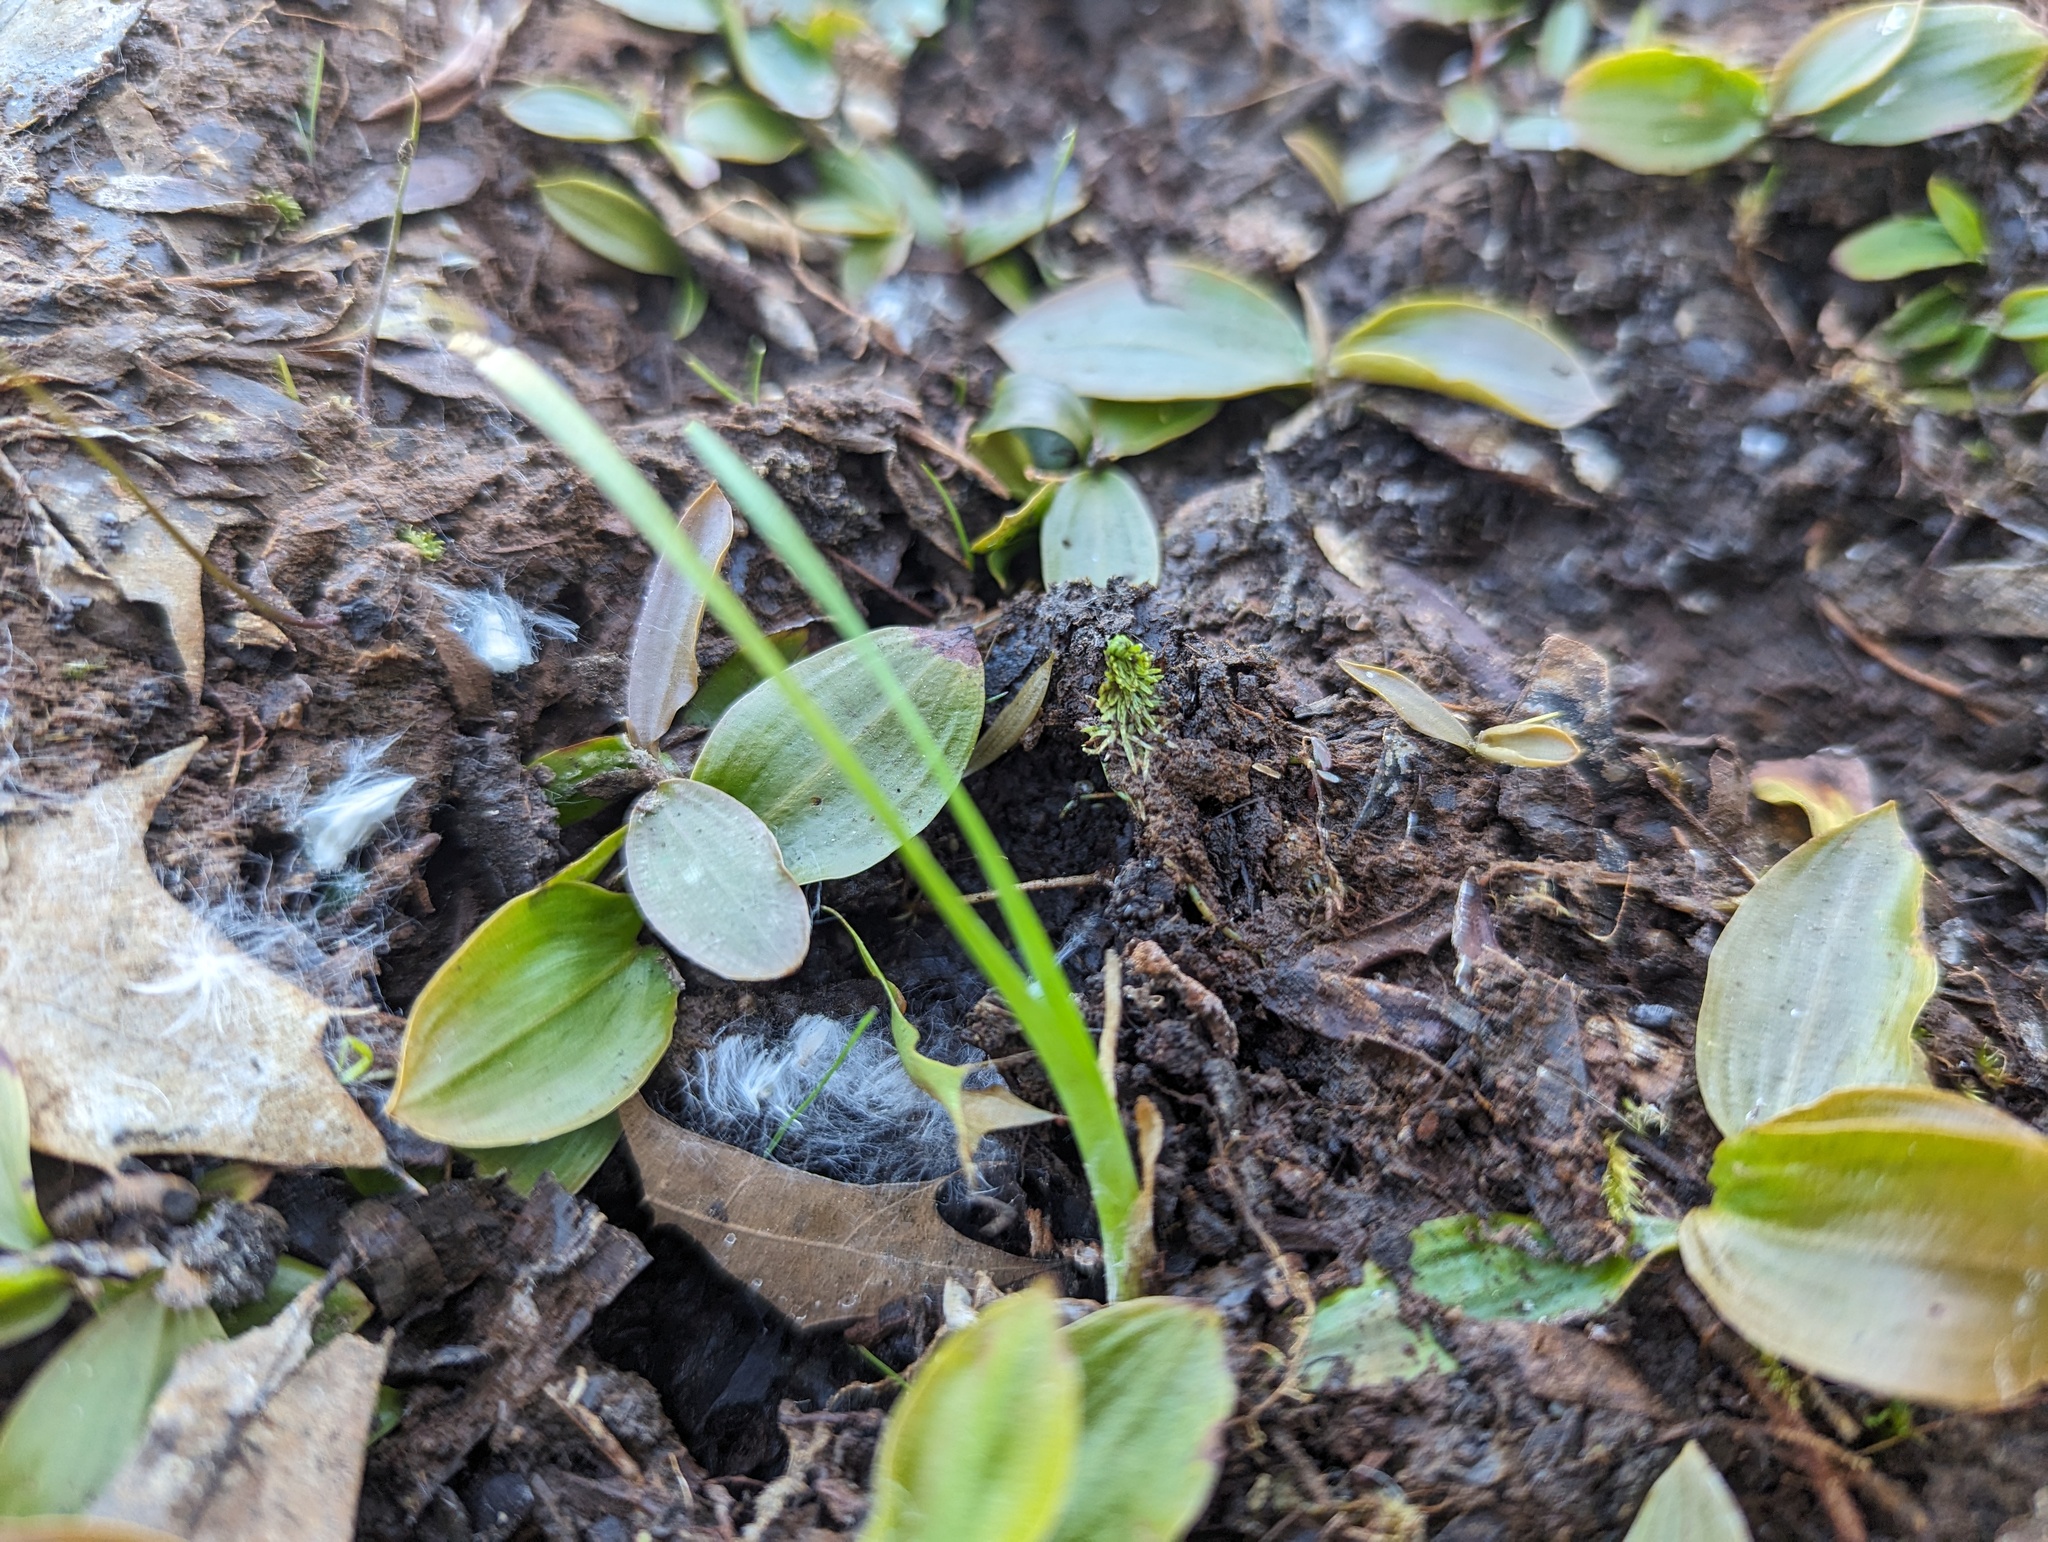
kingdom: Plantae
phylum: Tracheophyta
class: Magnoliopsida
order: Lamiales
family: Lentibulariaceae
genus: Utricularia
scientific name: Utricularia intermedia
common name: Intermediate bladderwort
